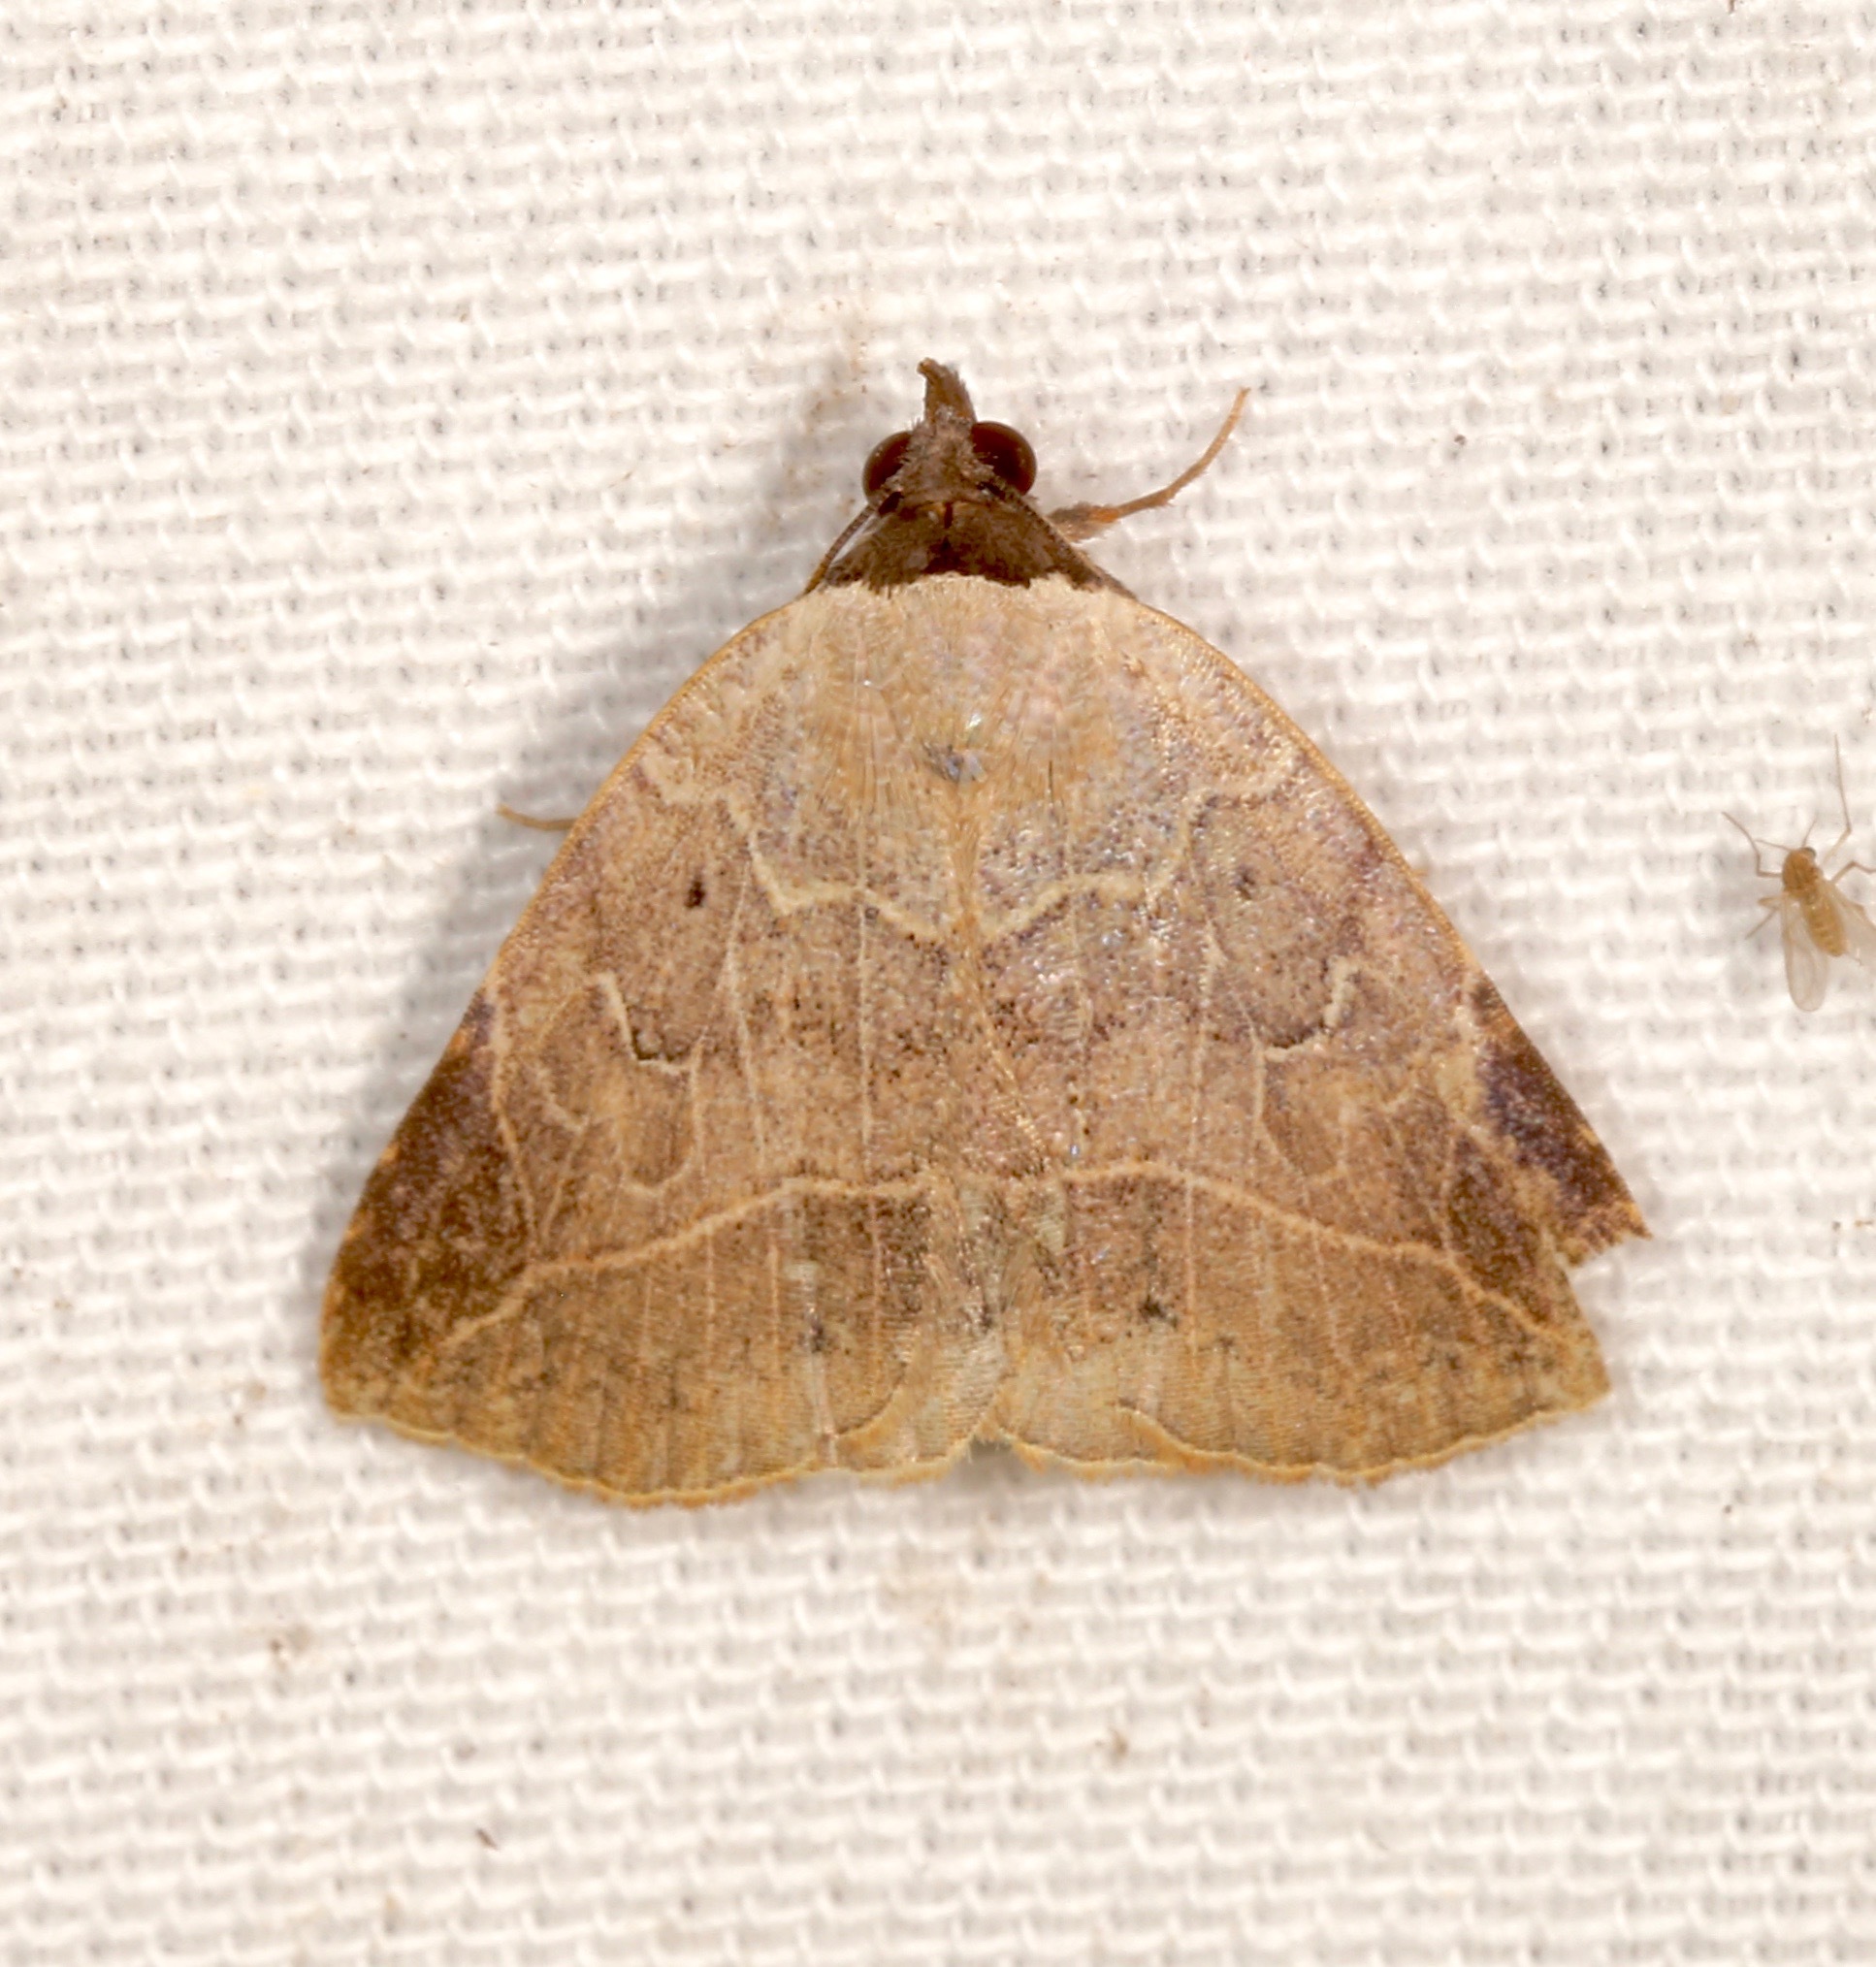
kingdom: Animalia
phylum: Arthropoda
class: Insecta
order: Lepidoptera
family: Erebidae
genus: Isogona
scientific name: Isogona segura
